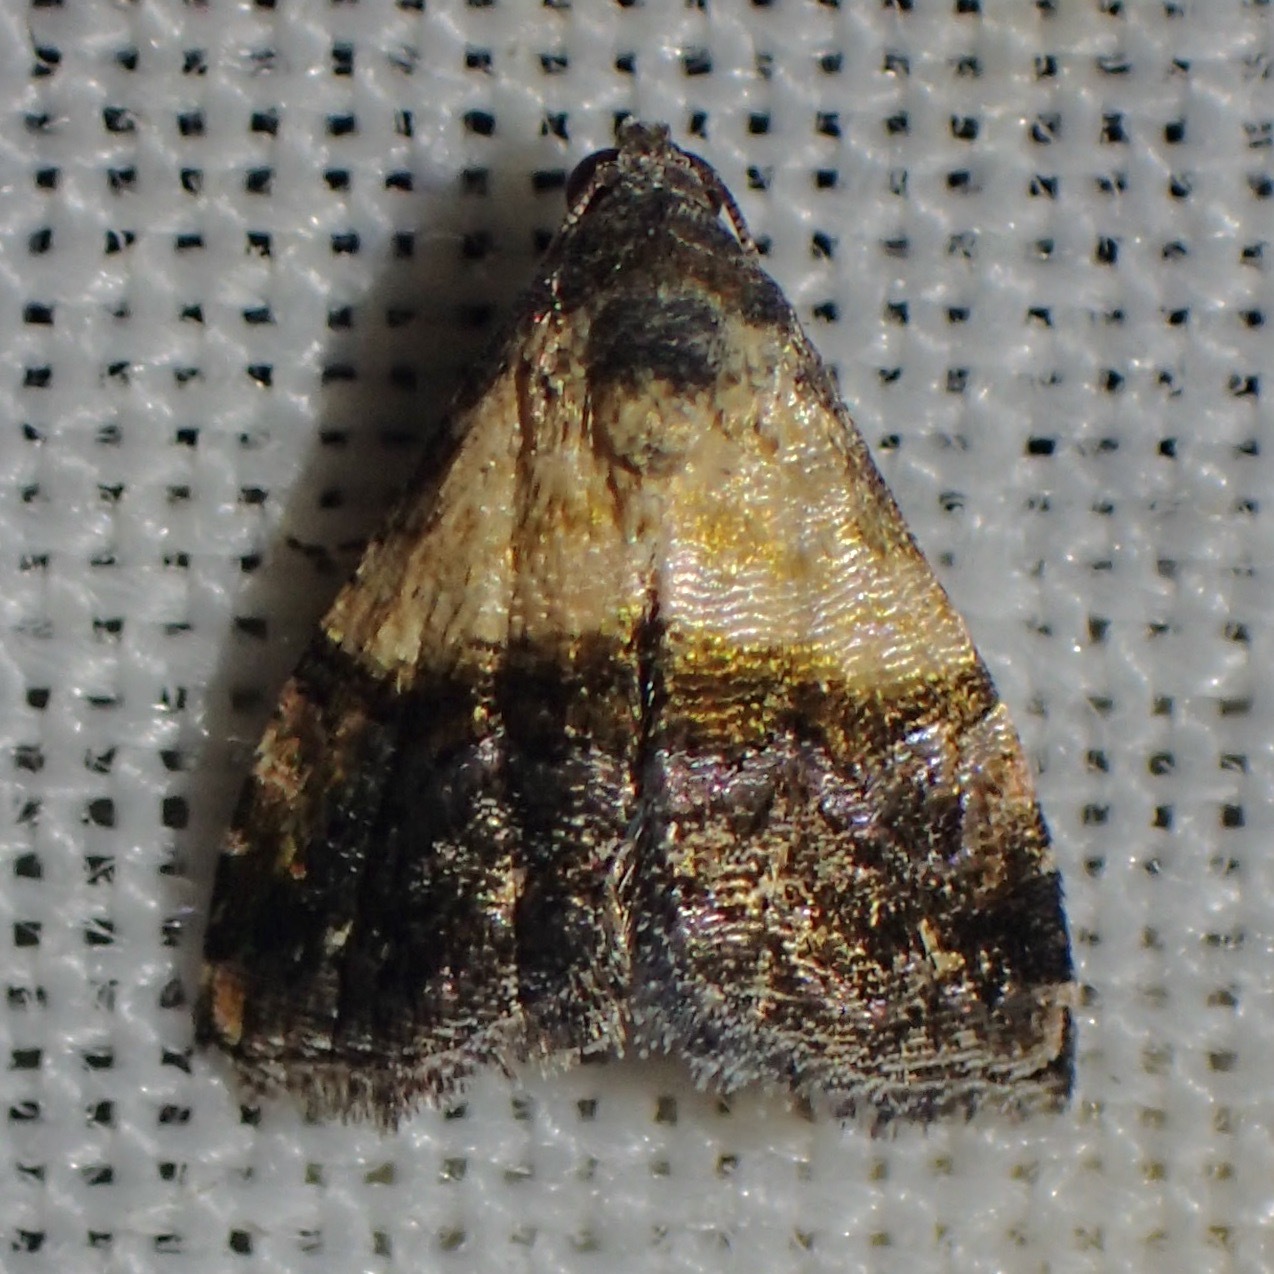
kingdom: Animalia
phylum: Arthropoda
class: Insecta
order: Lepidoptera
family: Noctuidae
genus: Tripudia
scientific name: Tripudia luda
